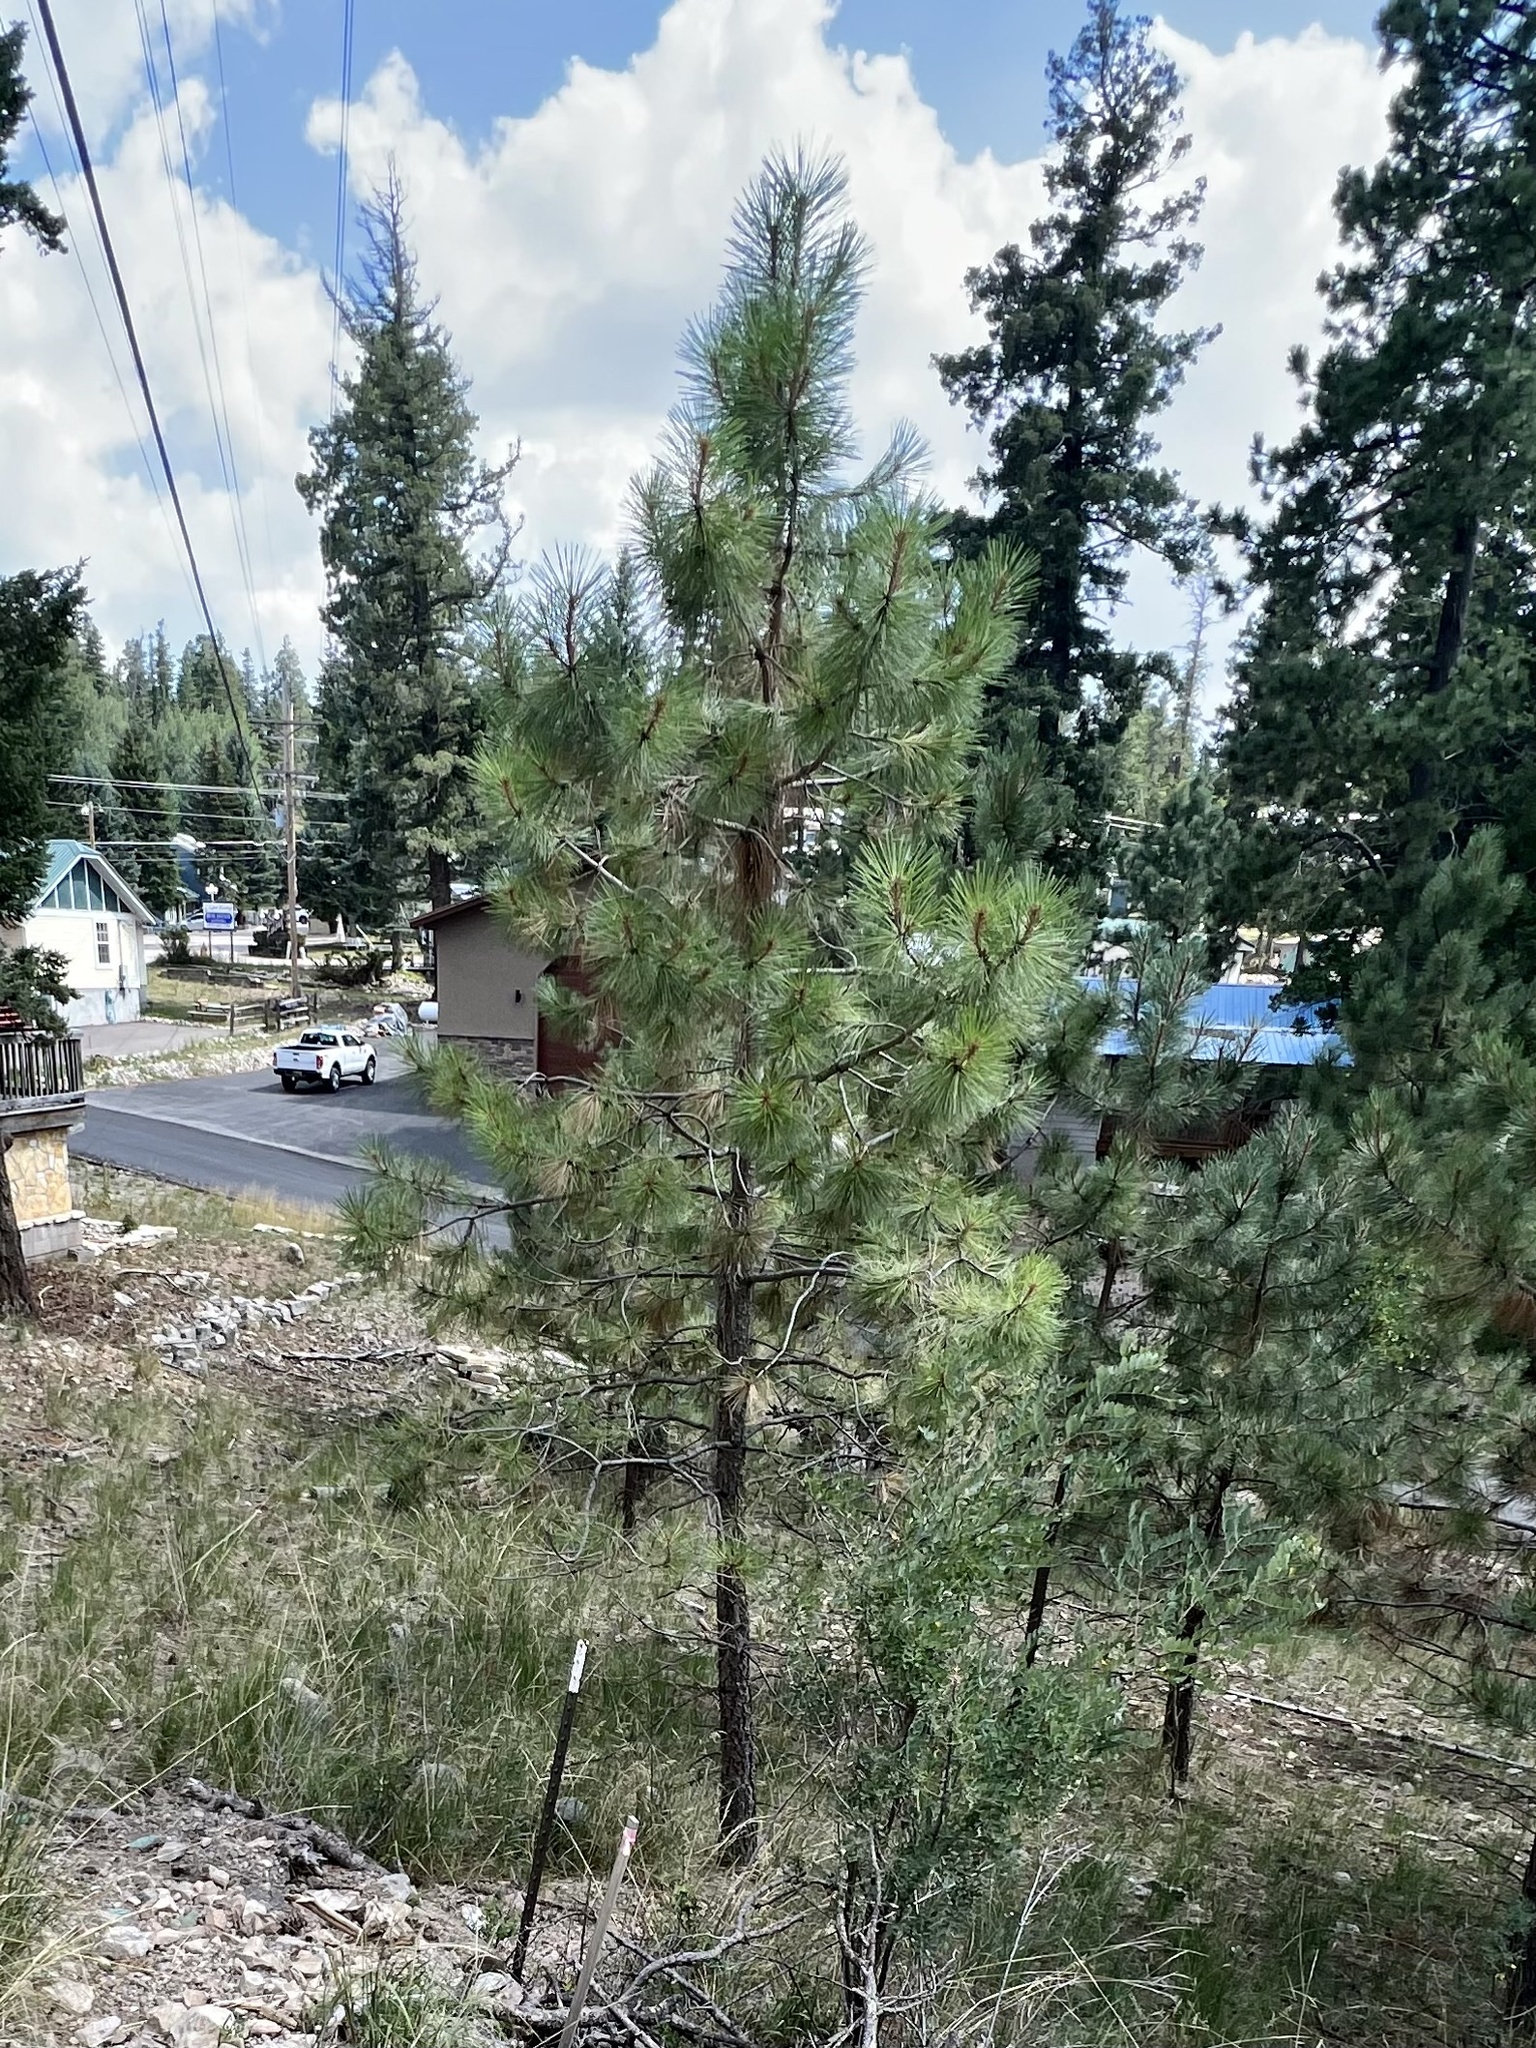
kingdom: Plantae
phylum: Tracheophyta
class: Pinopsida
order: Pinales
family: Pinaceae
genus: Pinus
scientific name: Pinus ponderosa
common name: Western yellow-pine
